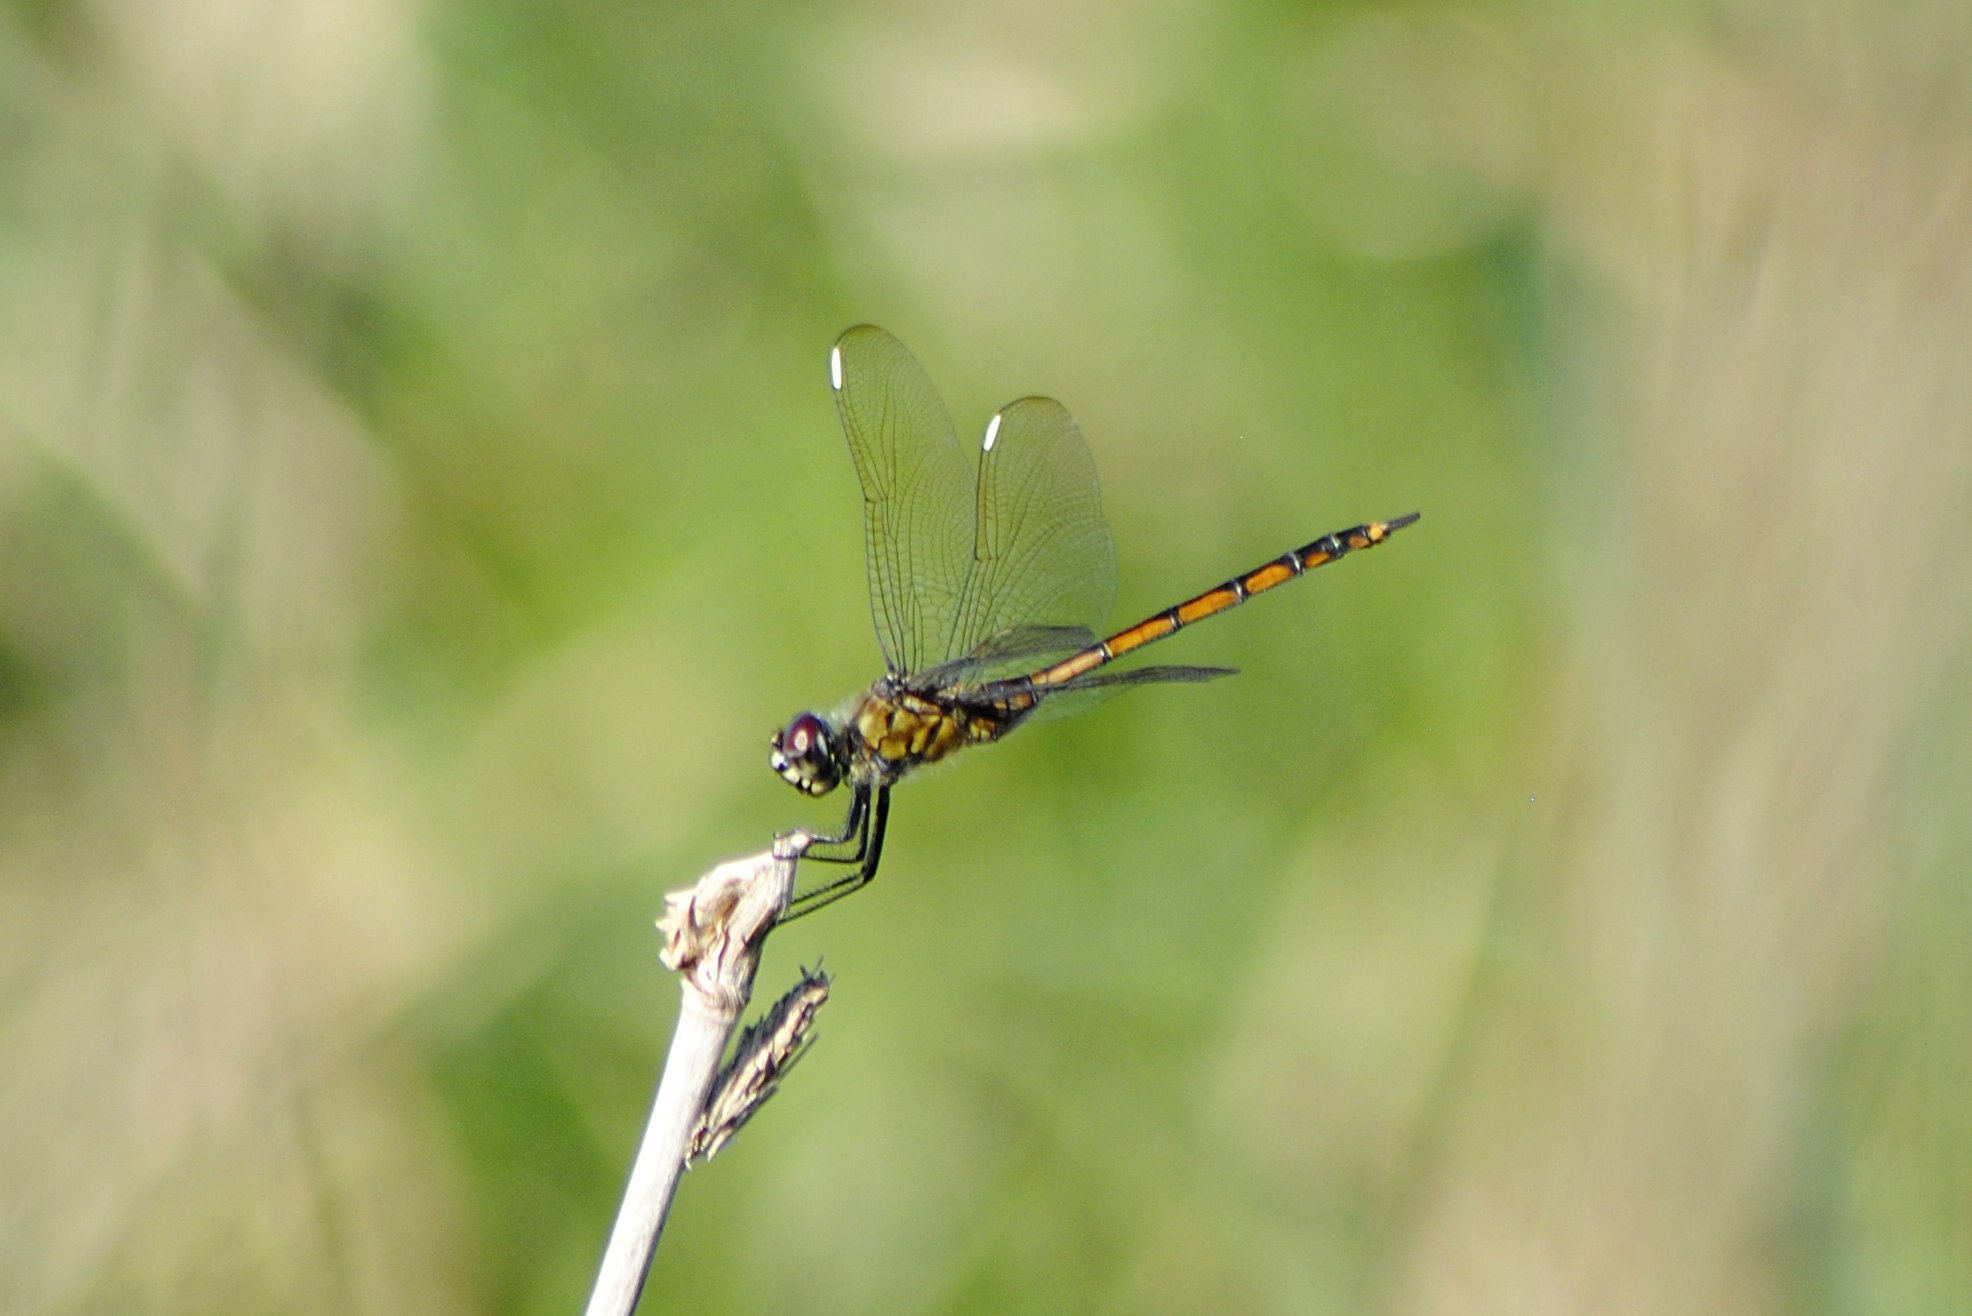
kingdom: Animalia
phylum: Arthropoda
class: Insecta
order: Odonata
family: Libellulidae
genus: Brachymesia
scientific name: Brachymesia gravida
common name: Four-spotted pennant
